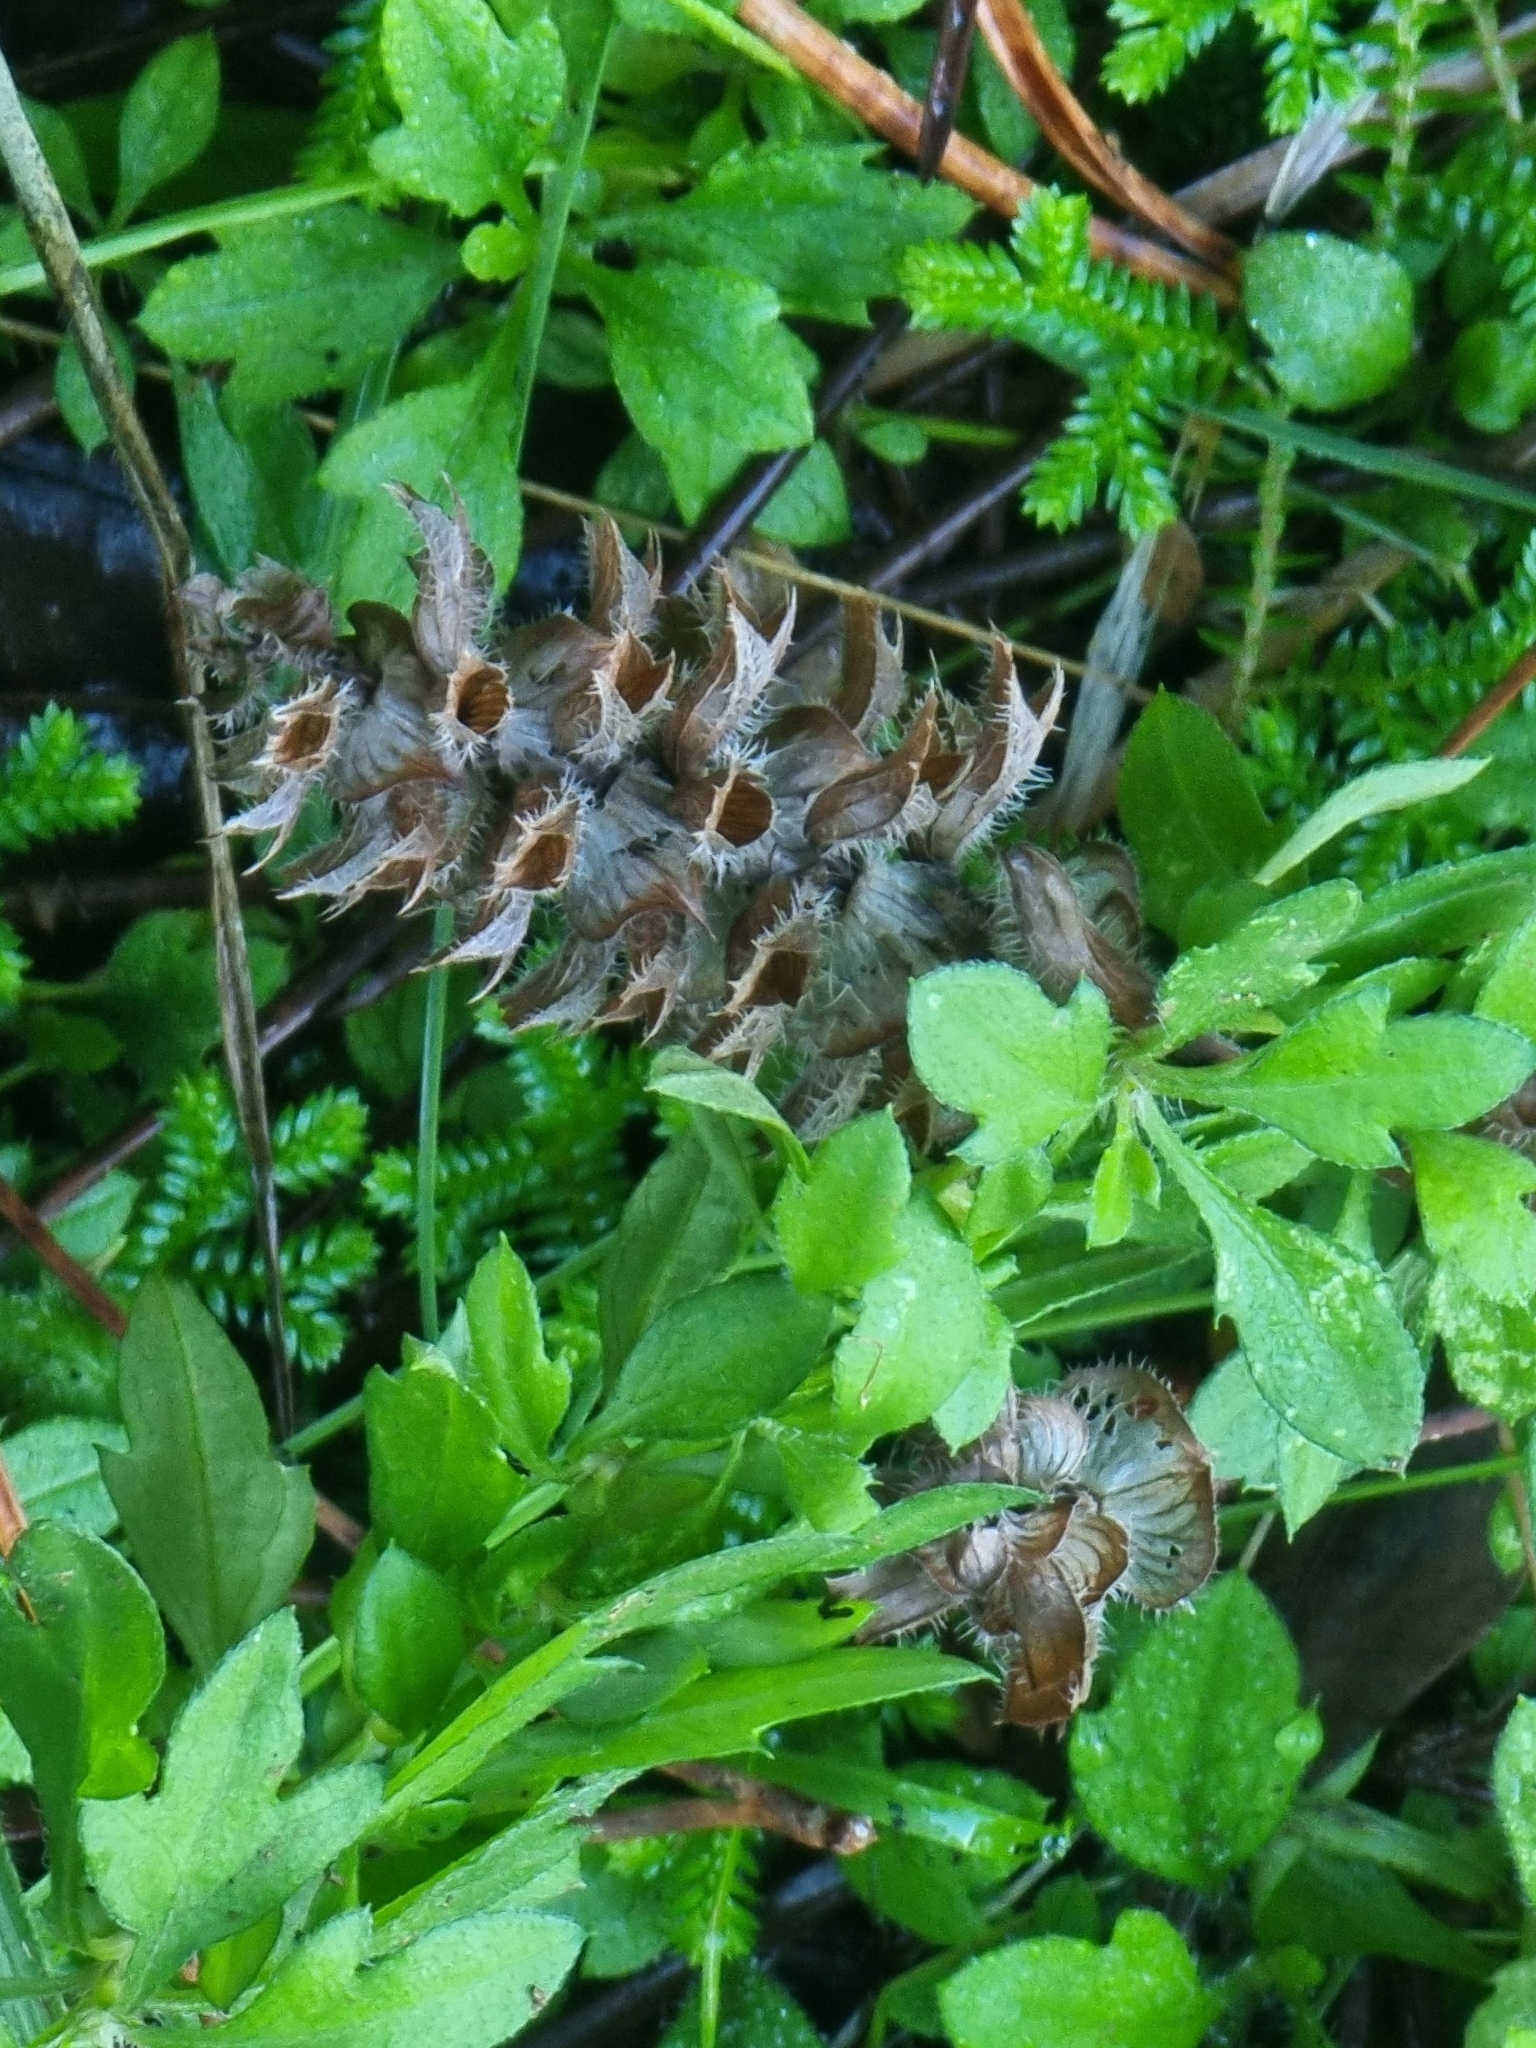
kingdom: Plantae
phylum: Tracheophyta
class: Magnoliopsida
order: Lamiales
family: Lamiaceae
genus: Prunella
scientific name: Prunella vulgaris
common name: Heal-all
